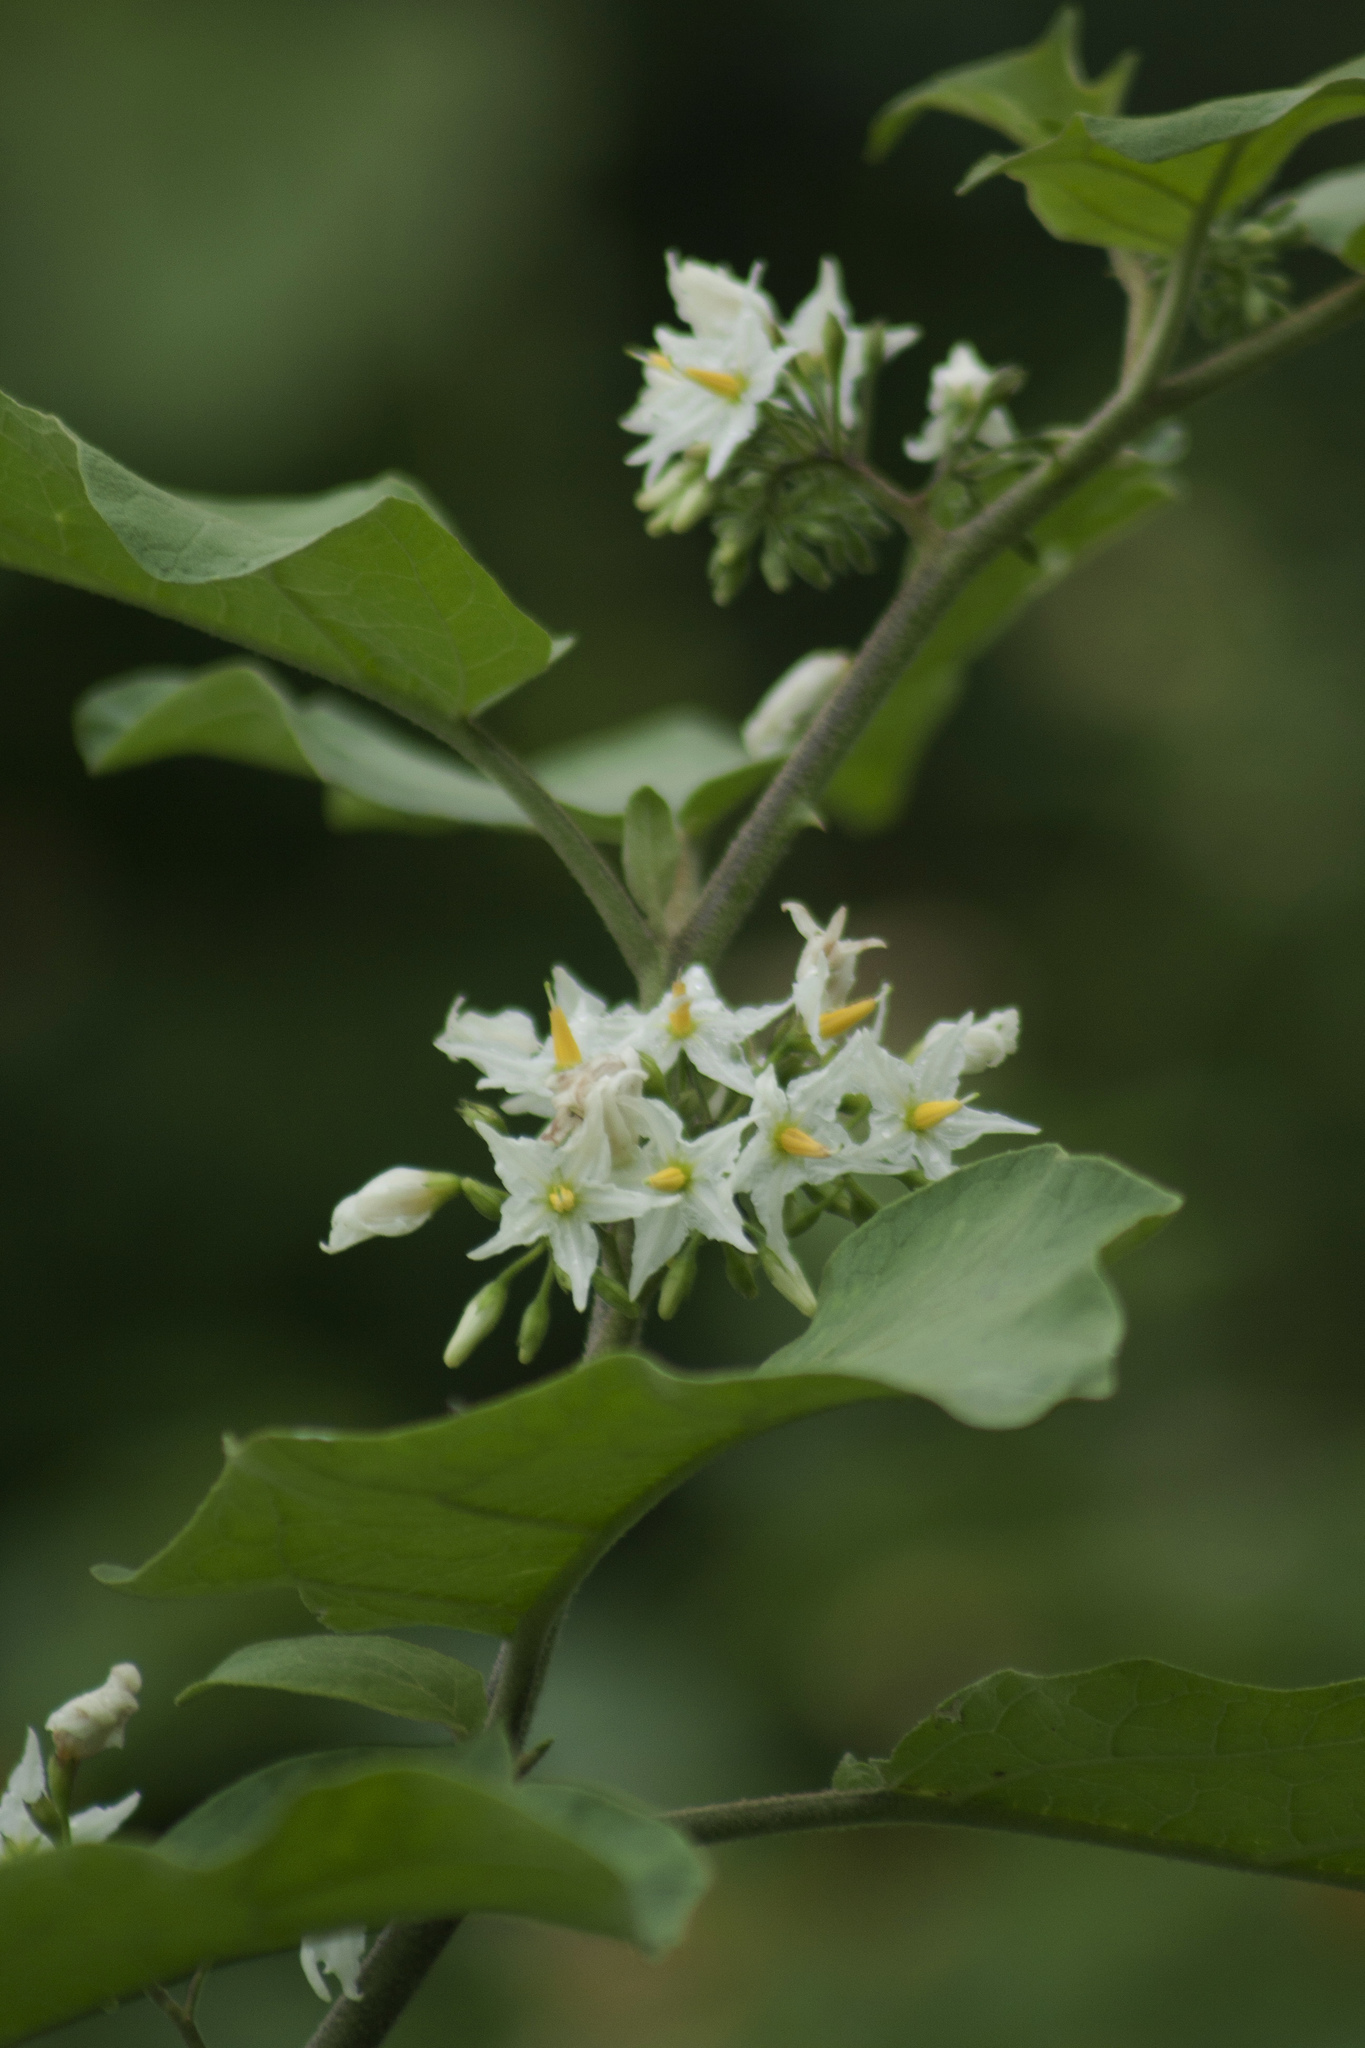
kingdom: Plantae
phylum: Tracheophyta
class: Magnoliopsida
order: Solanales
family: Solanaceae
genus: Solanum
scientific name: Solanum torvum
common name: Turkey berry
